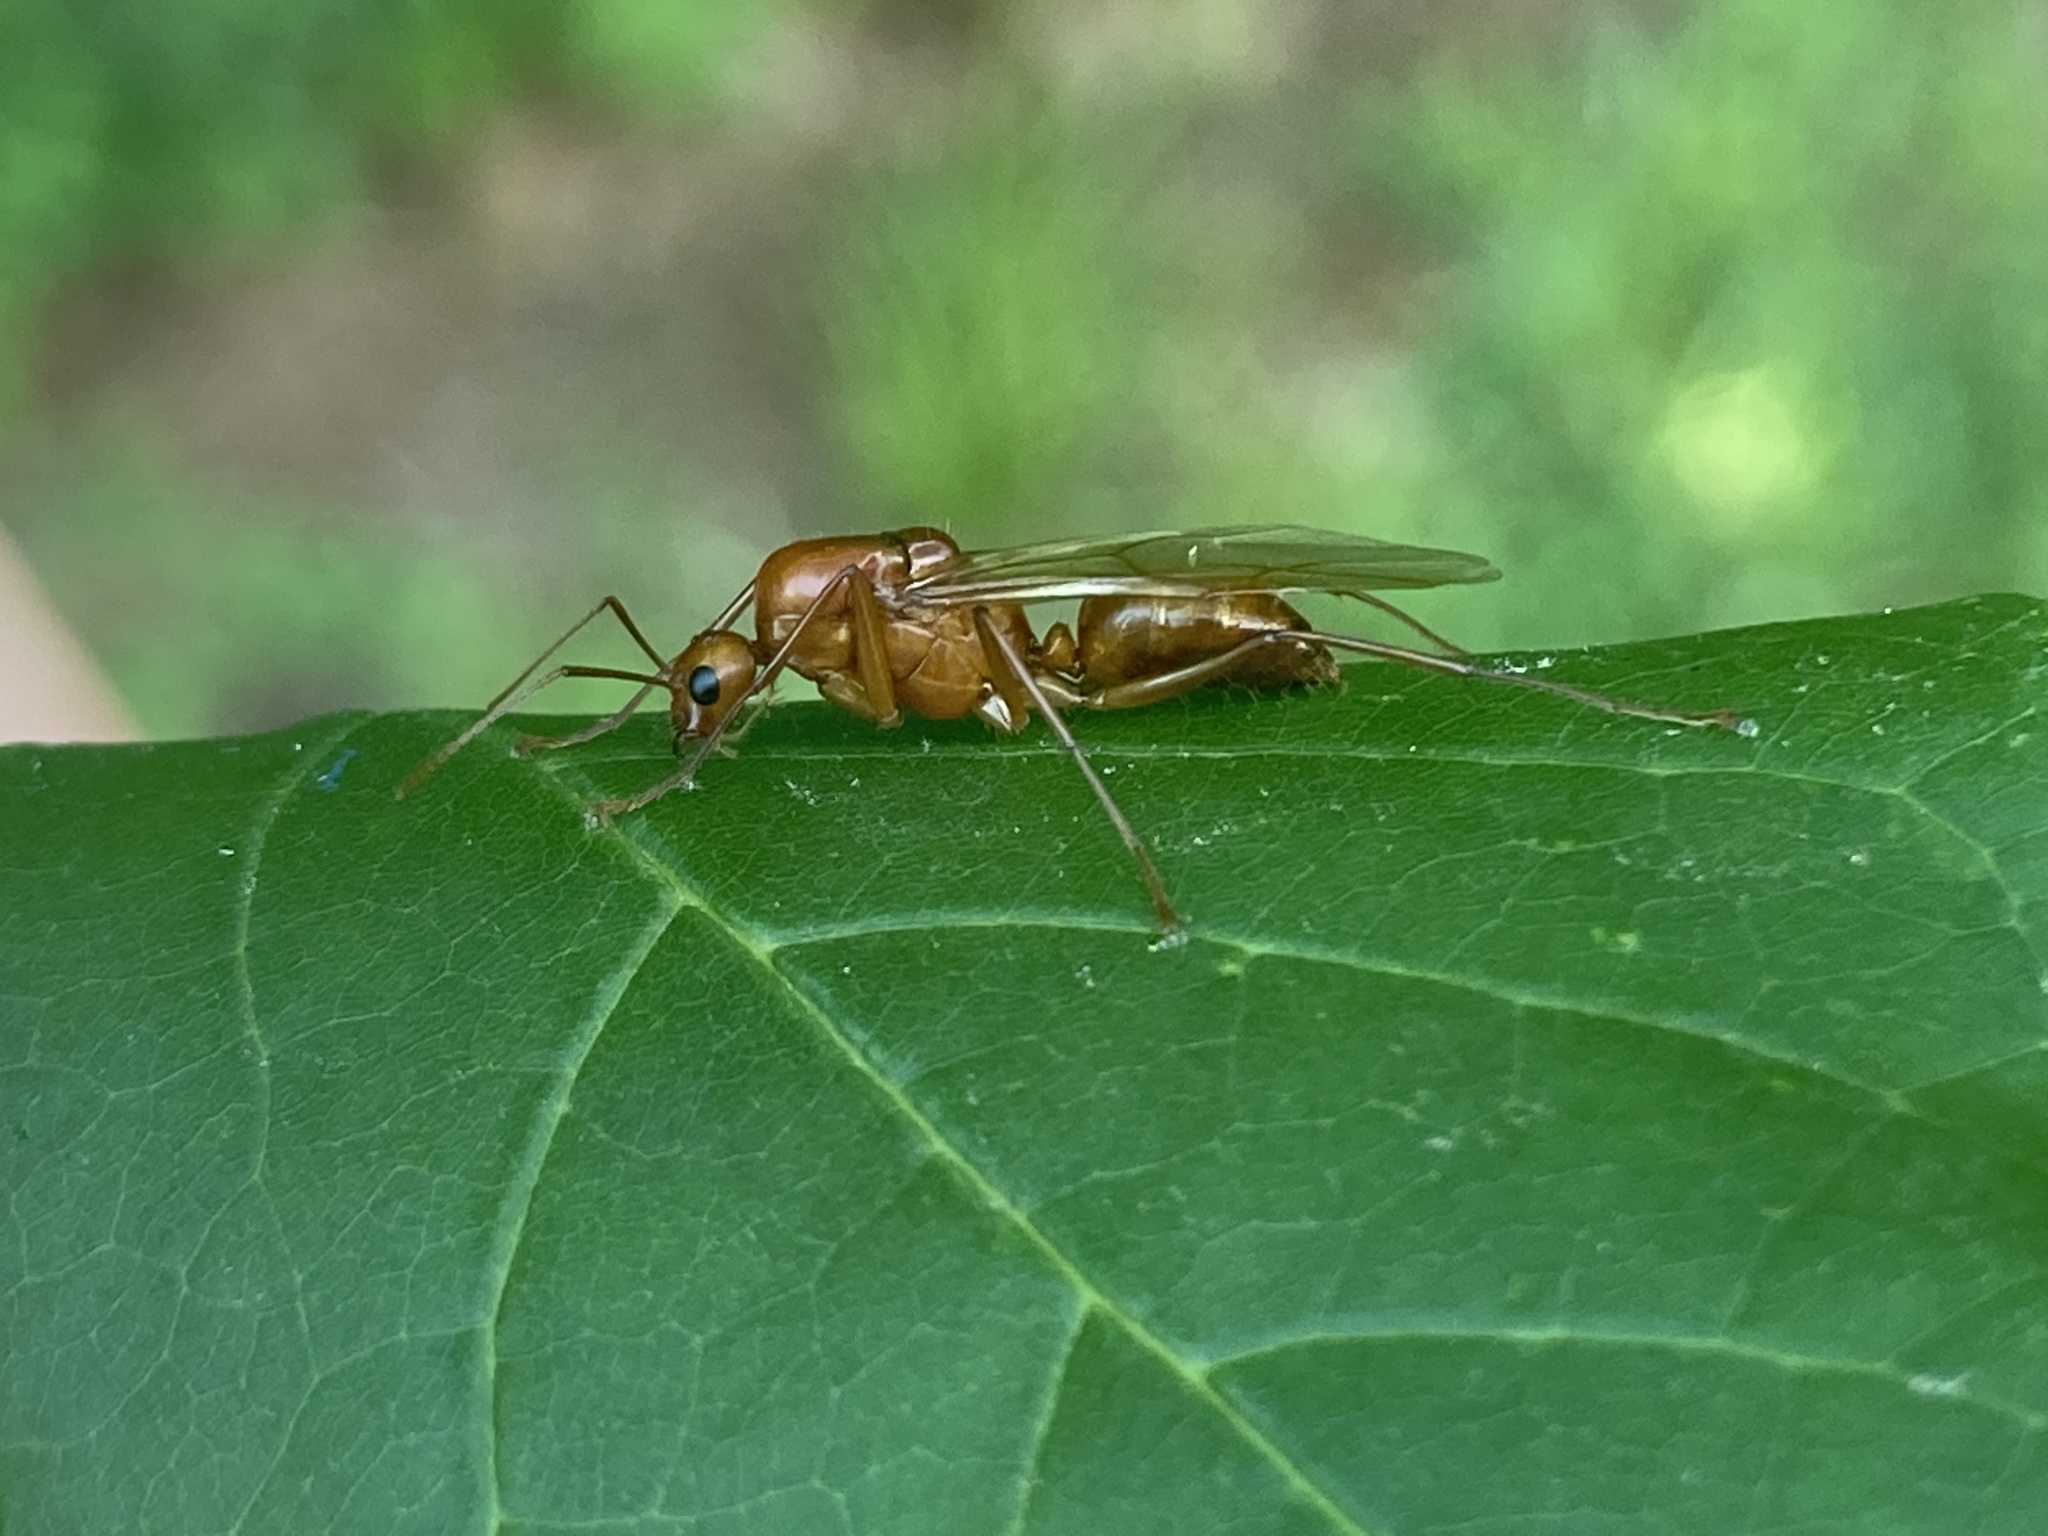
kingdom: Animalia
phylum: Arthropoda
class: Insecta
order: Hymenoptera
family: Formicidae
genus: Camponotus
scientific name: Camponotus castaneus
